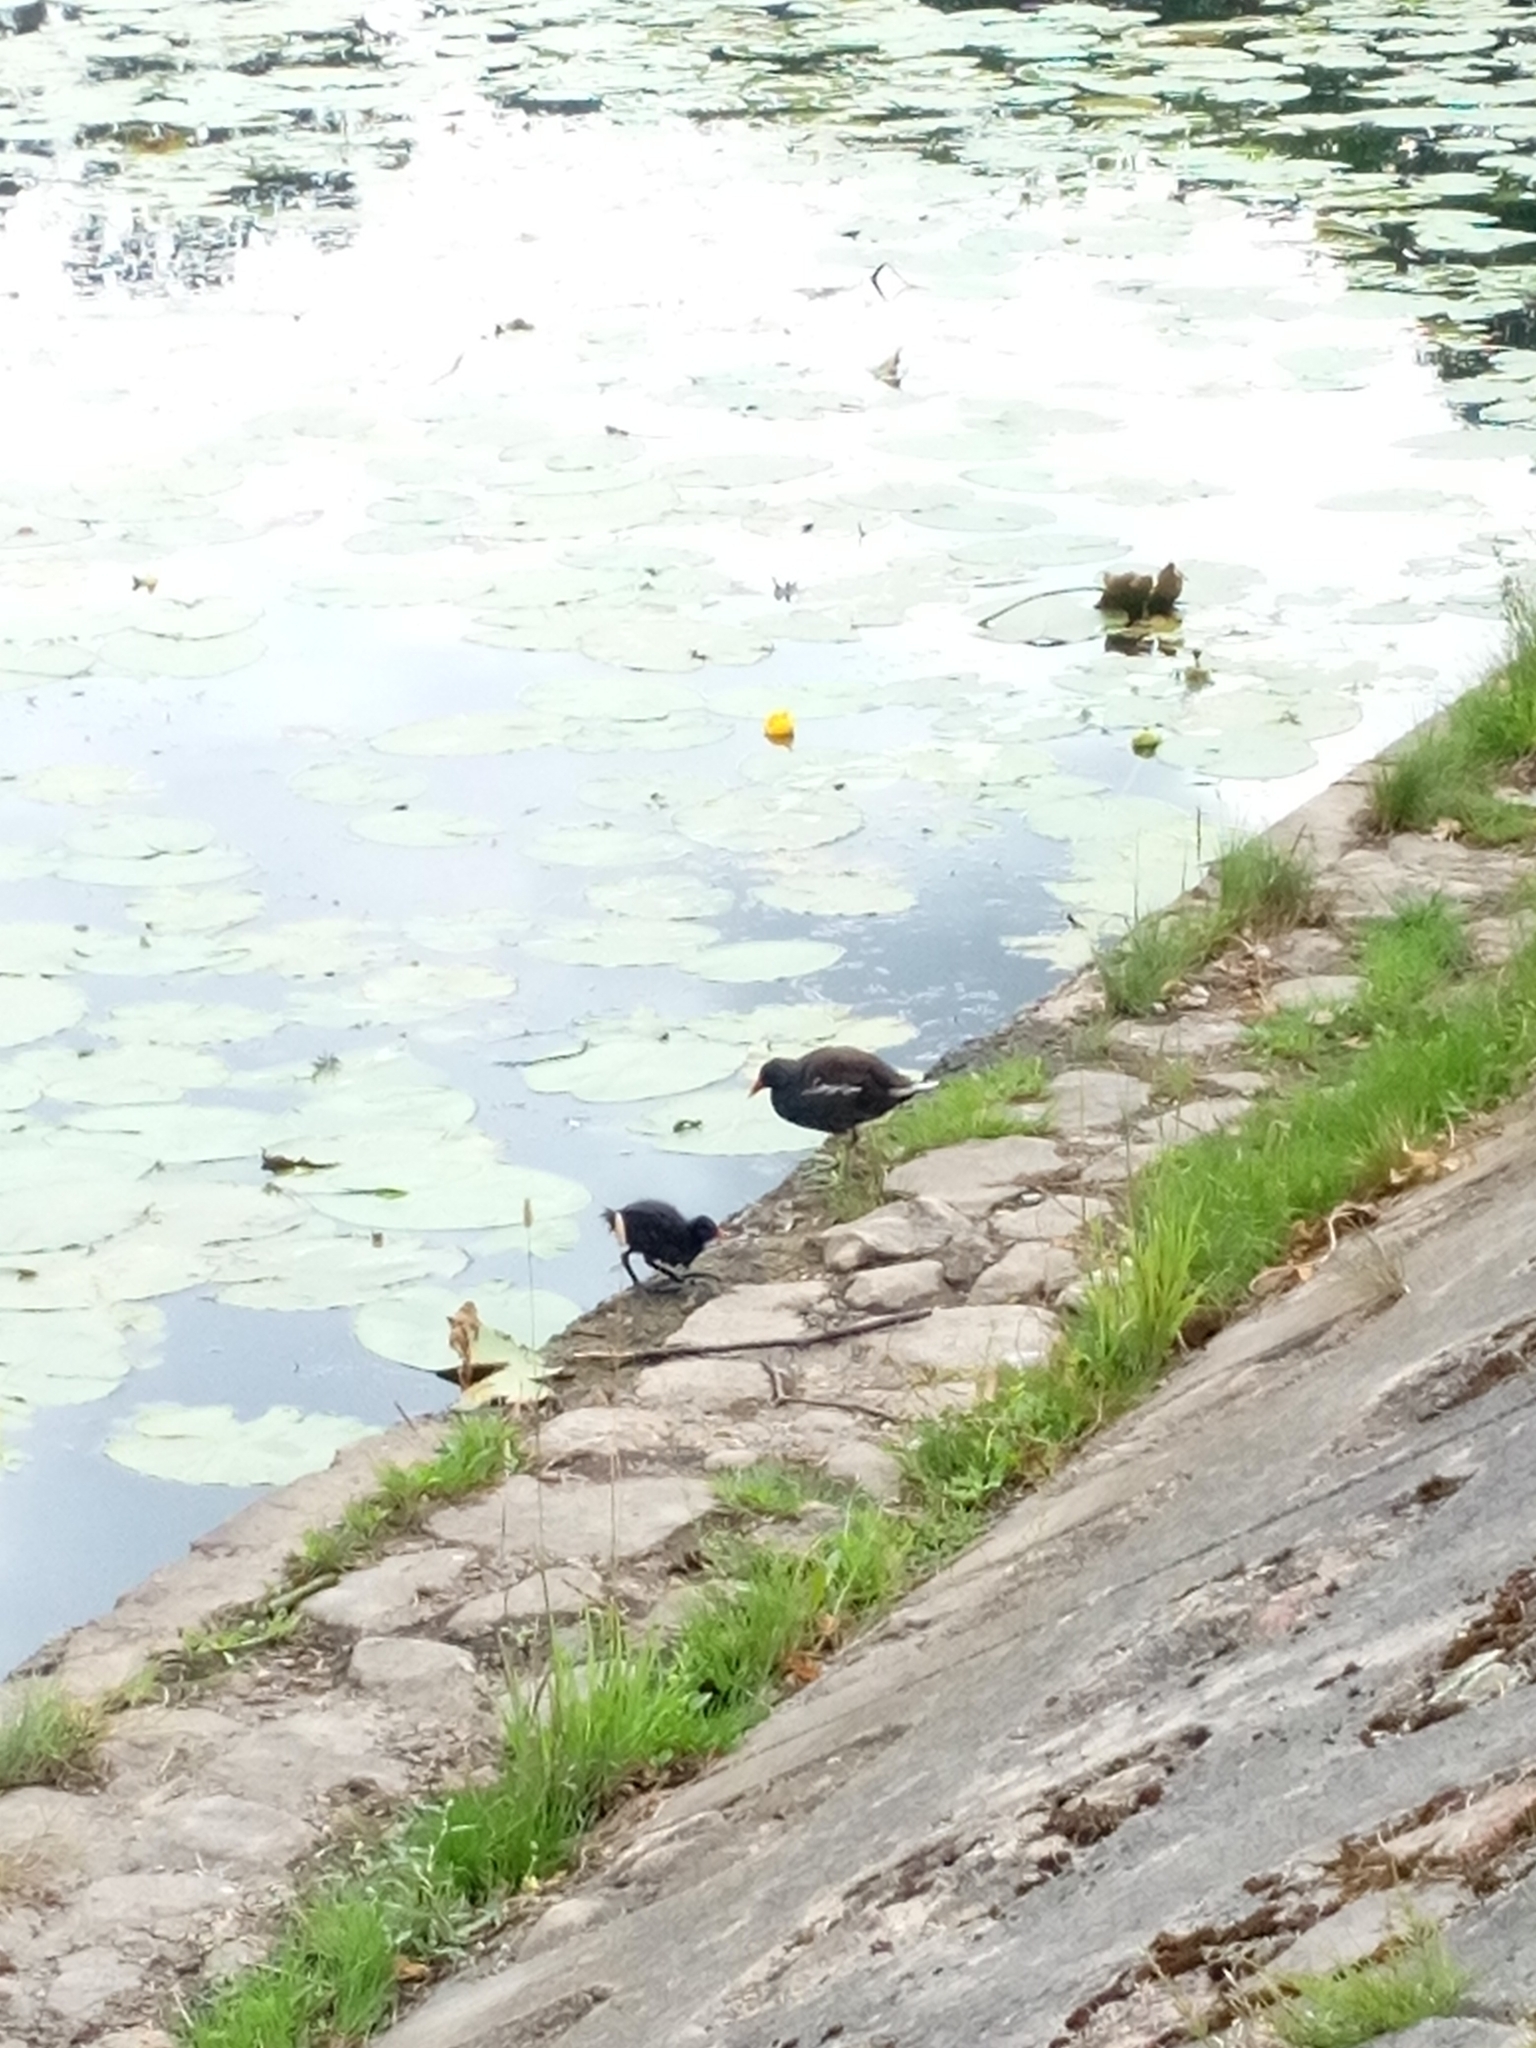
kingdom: Animalia
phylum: Chordata
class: Aves
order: Gruiformes
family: Rallidae
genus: Gallinula
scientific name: Gallinula chloropus
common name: Common moorhen
